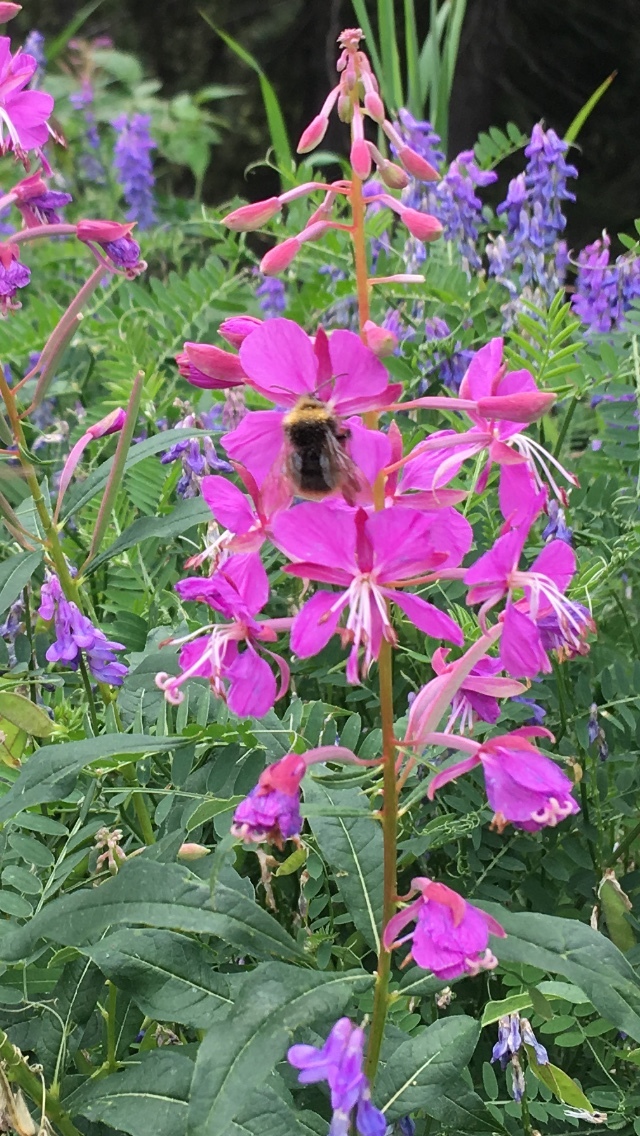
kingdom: Plantae
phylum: Tracheophyta
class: Magnoliopsida
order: Myrtales
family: Onagraceae
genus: Chamaenerion
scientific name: Chamaenerion angustifolium
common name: Fireweed
